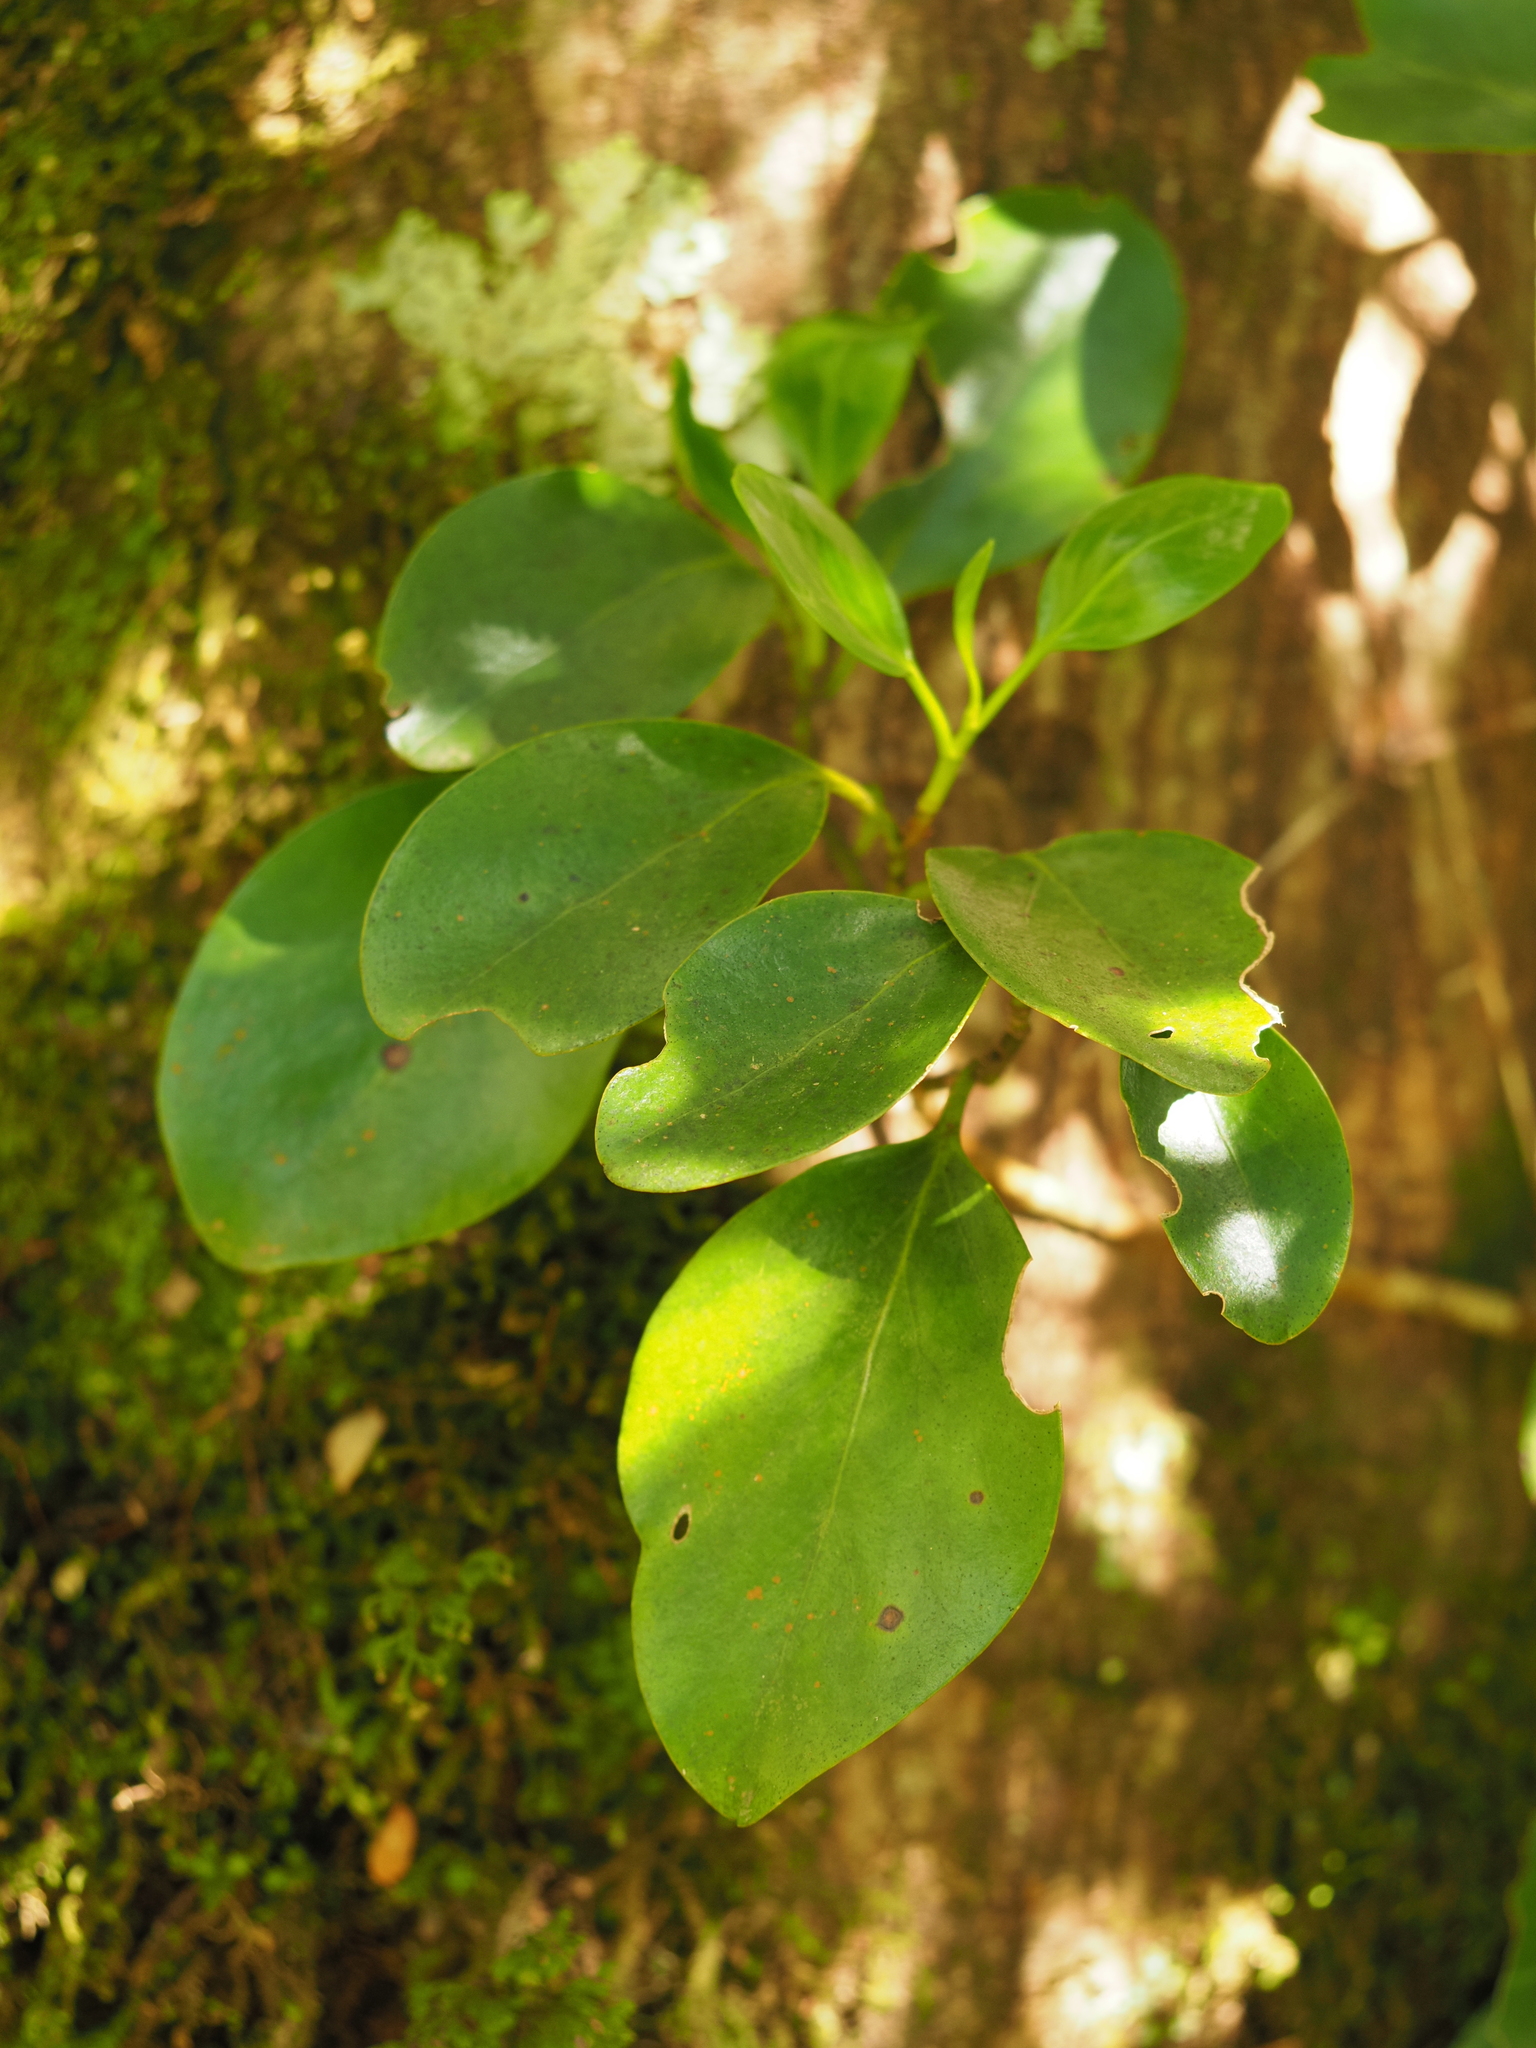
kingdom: Plantae
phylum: Tracheophyta
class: Magnoliopsida
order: Apiales
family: Griseliniaceae
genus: Griselinia
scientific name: Griselinia littoralis
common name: New zealand broadleaf
